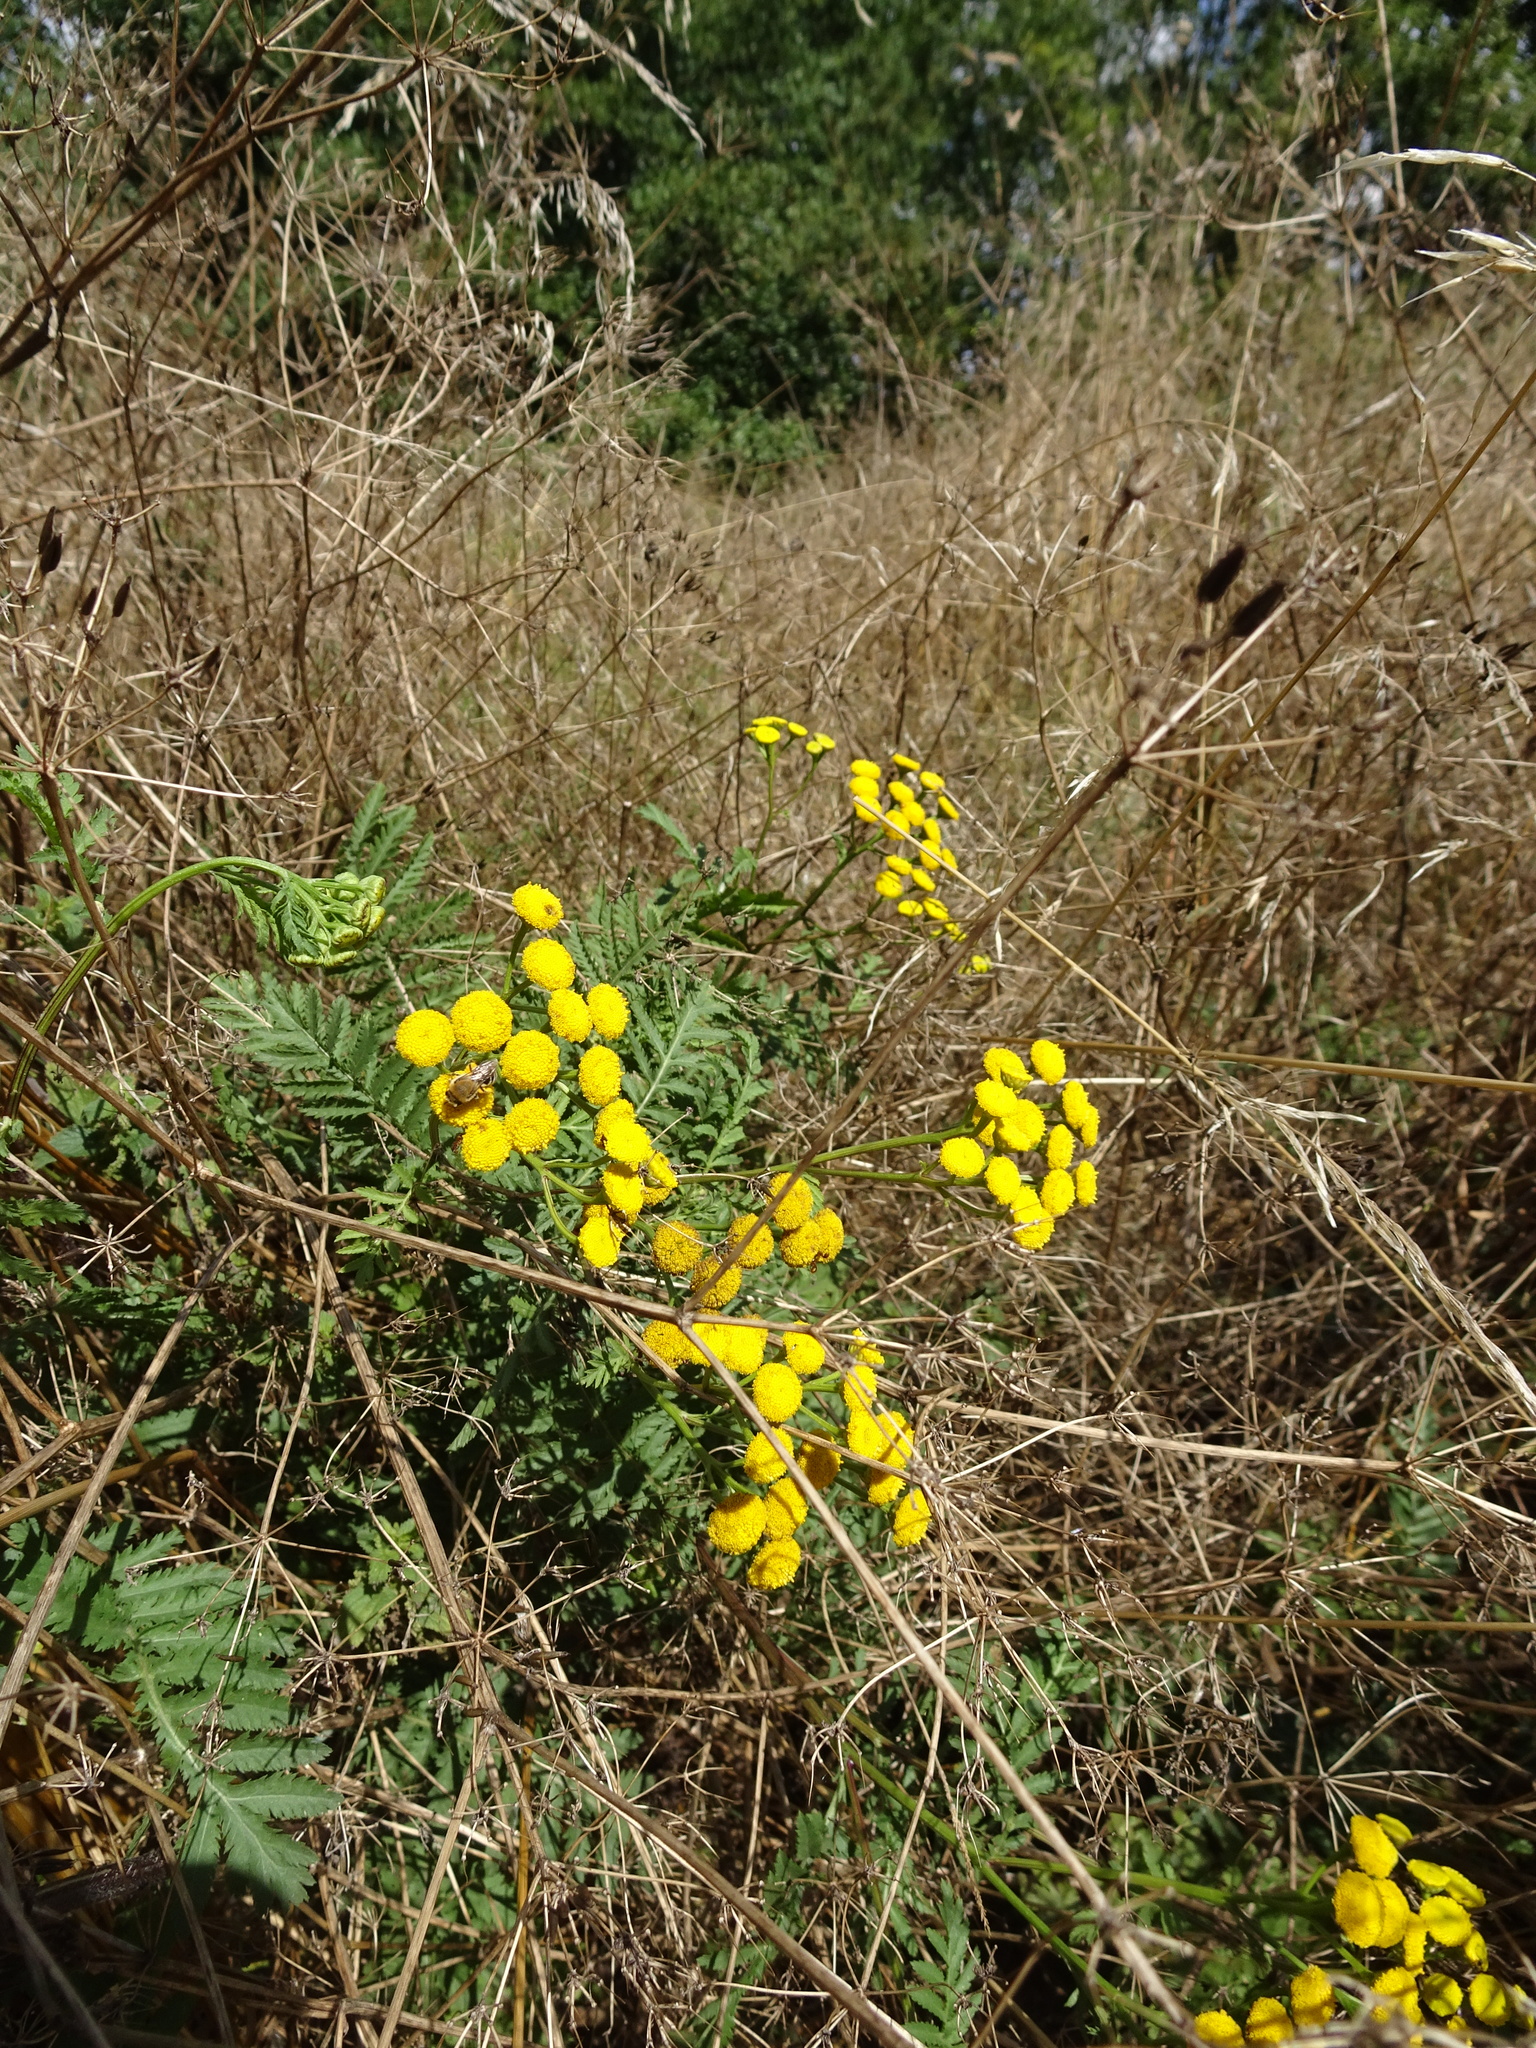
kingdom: Plantae
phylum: Tracheophyta
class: Magnoliopsida
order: Asterales
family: Asteraceae
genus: Tanacetum
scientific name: Tanacetum vulgare
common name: Common tansy
